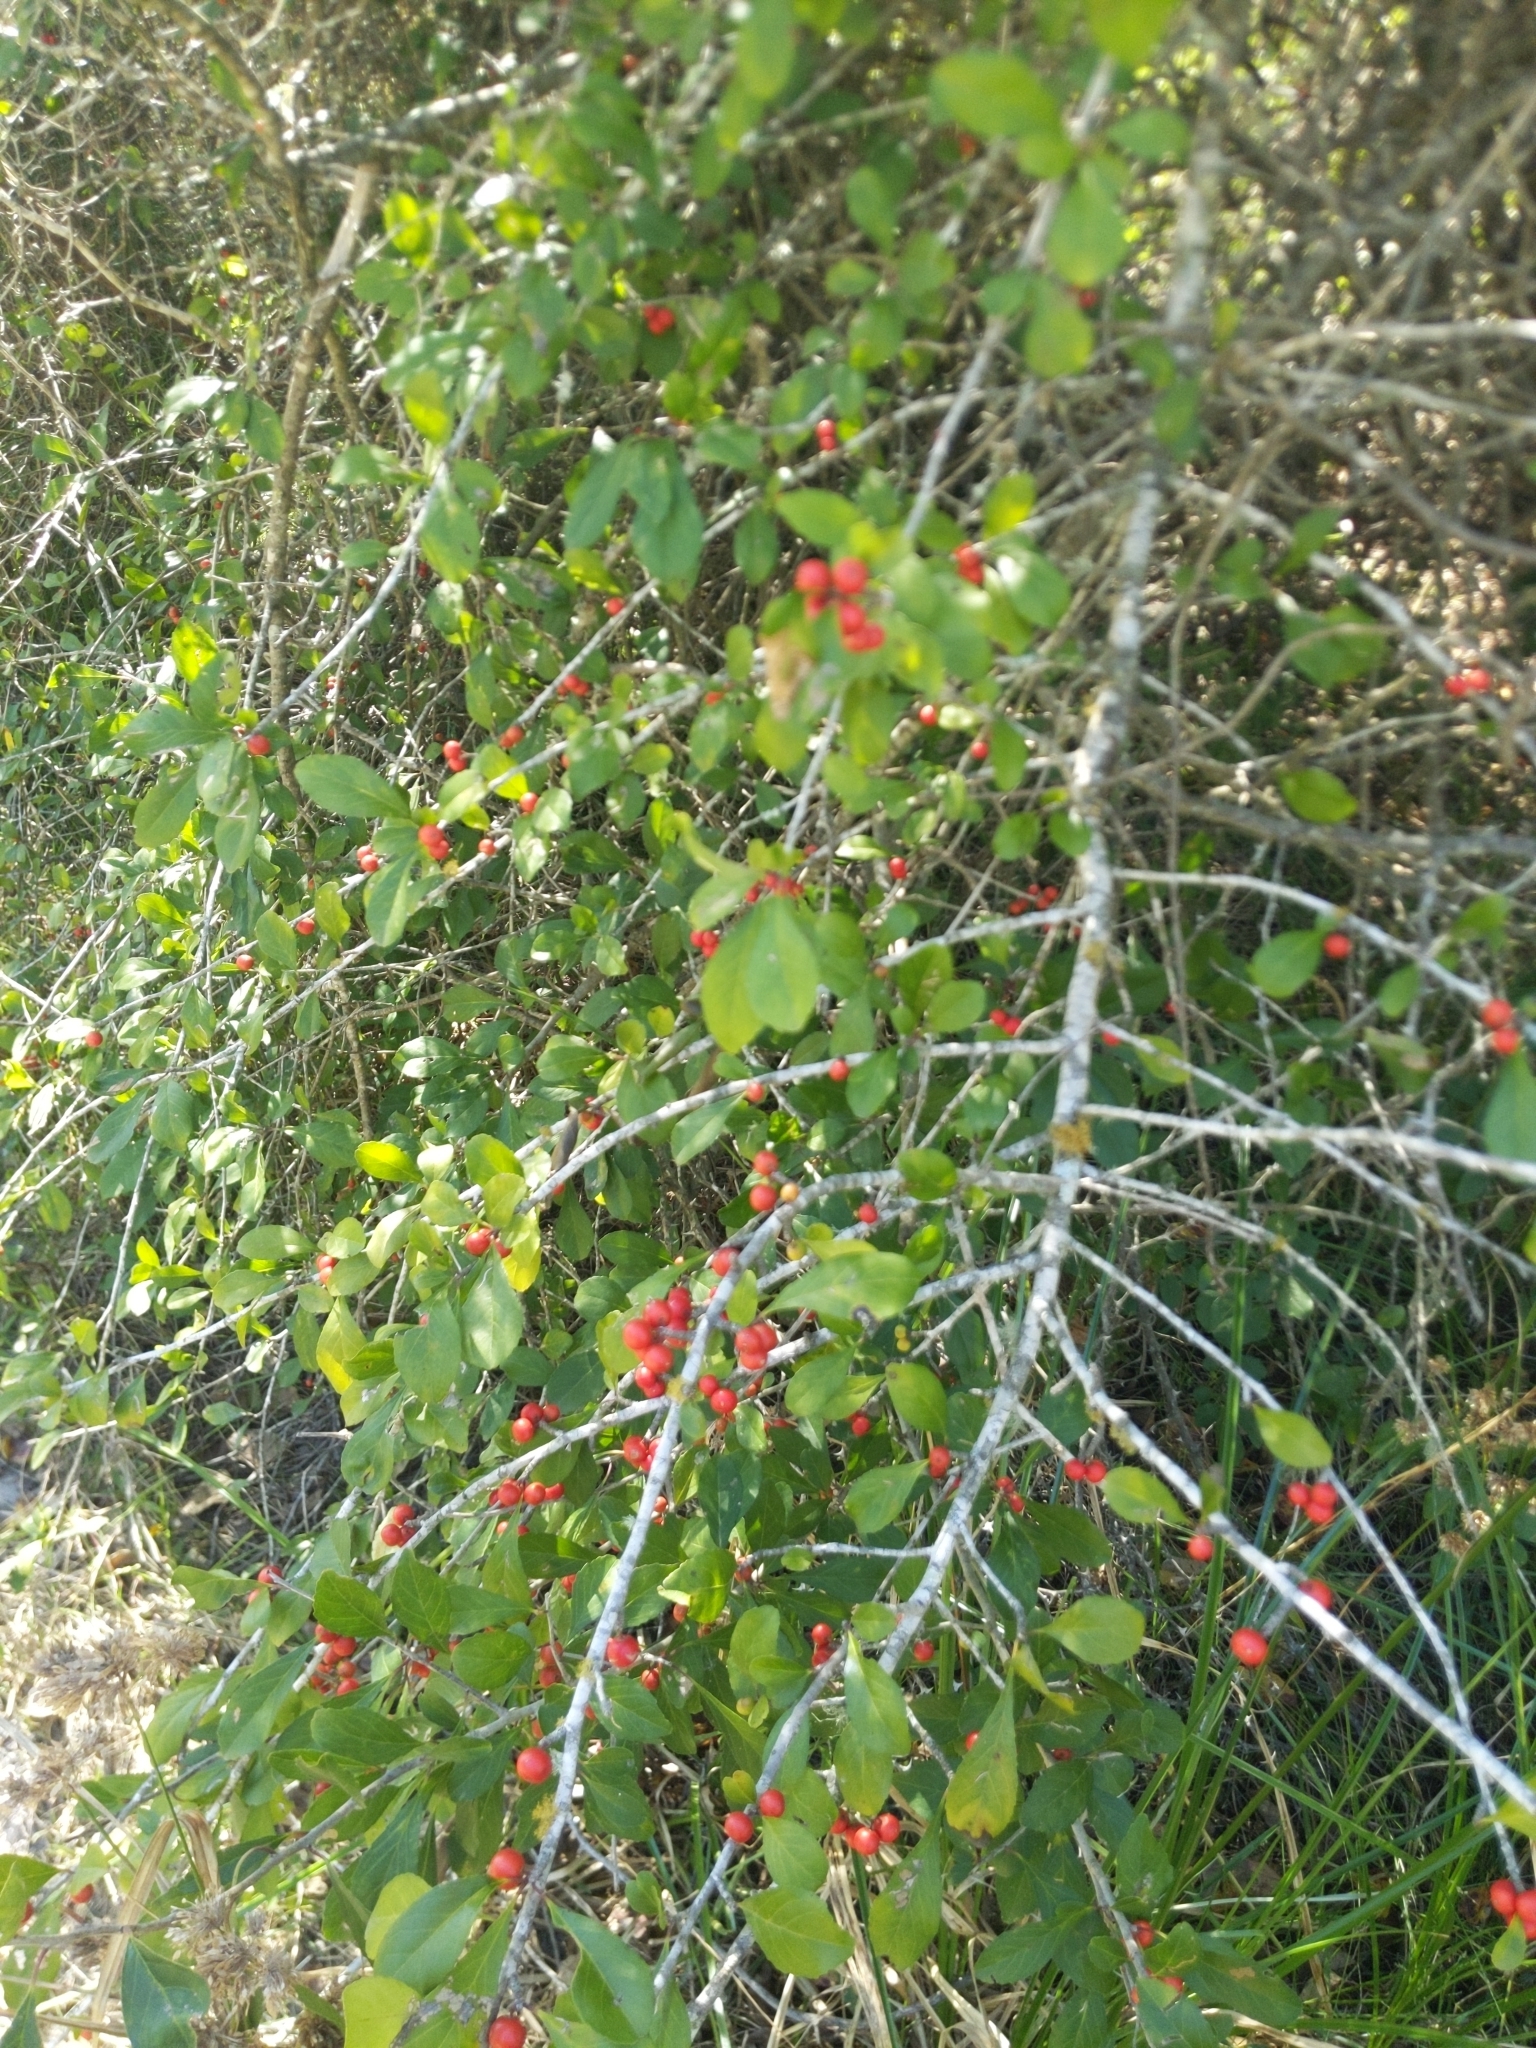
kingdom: Plantae
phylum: Tracheophyta
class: Magnoliopsida
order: Aquifoliales
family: Aquifoliaceae
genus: Ilex
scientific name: Ilex decidua
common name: Possum-haw
